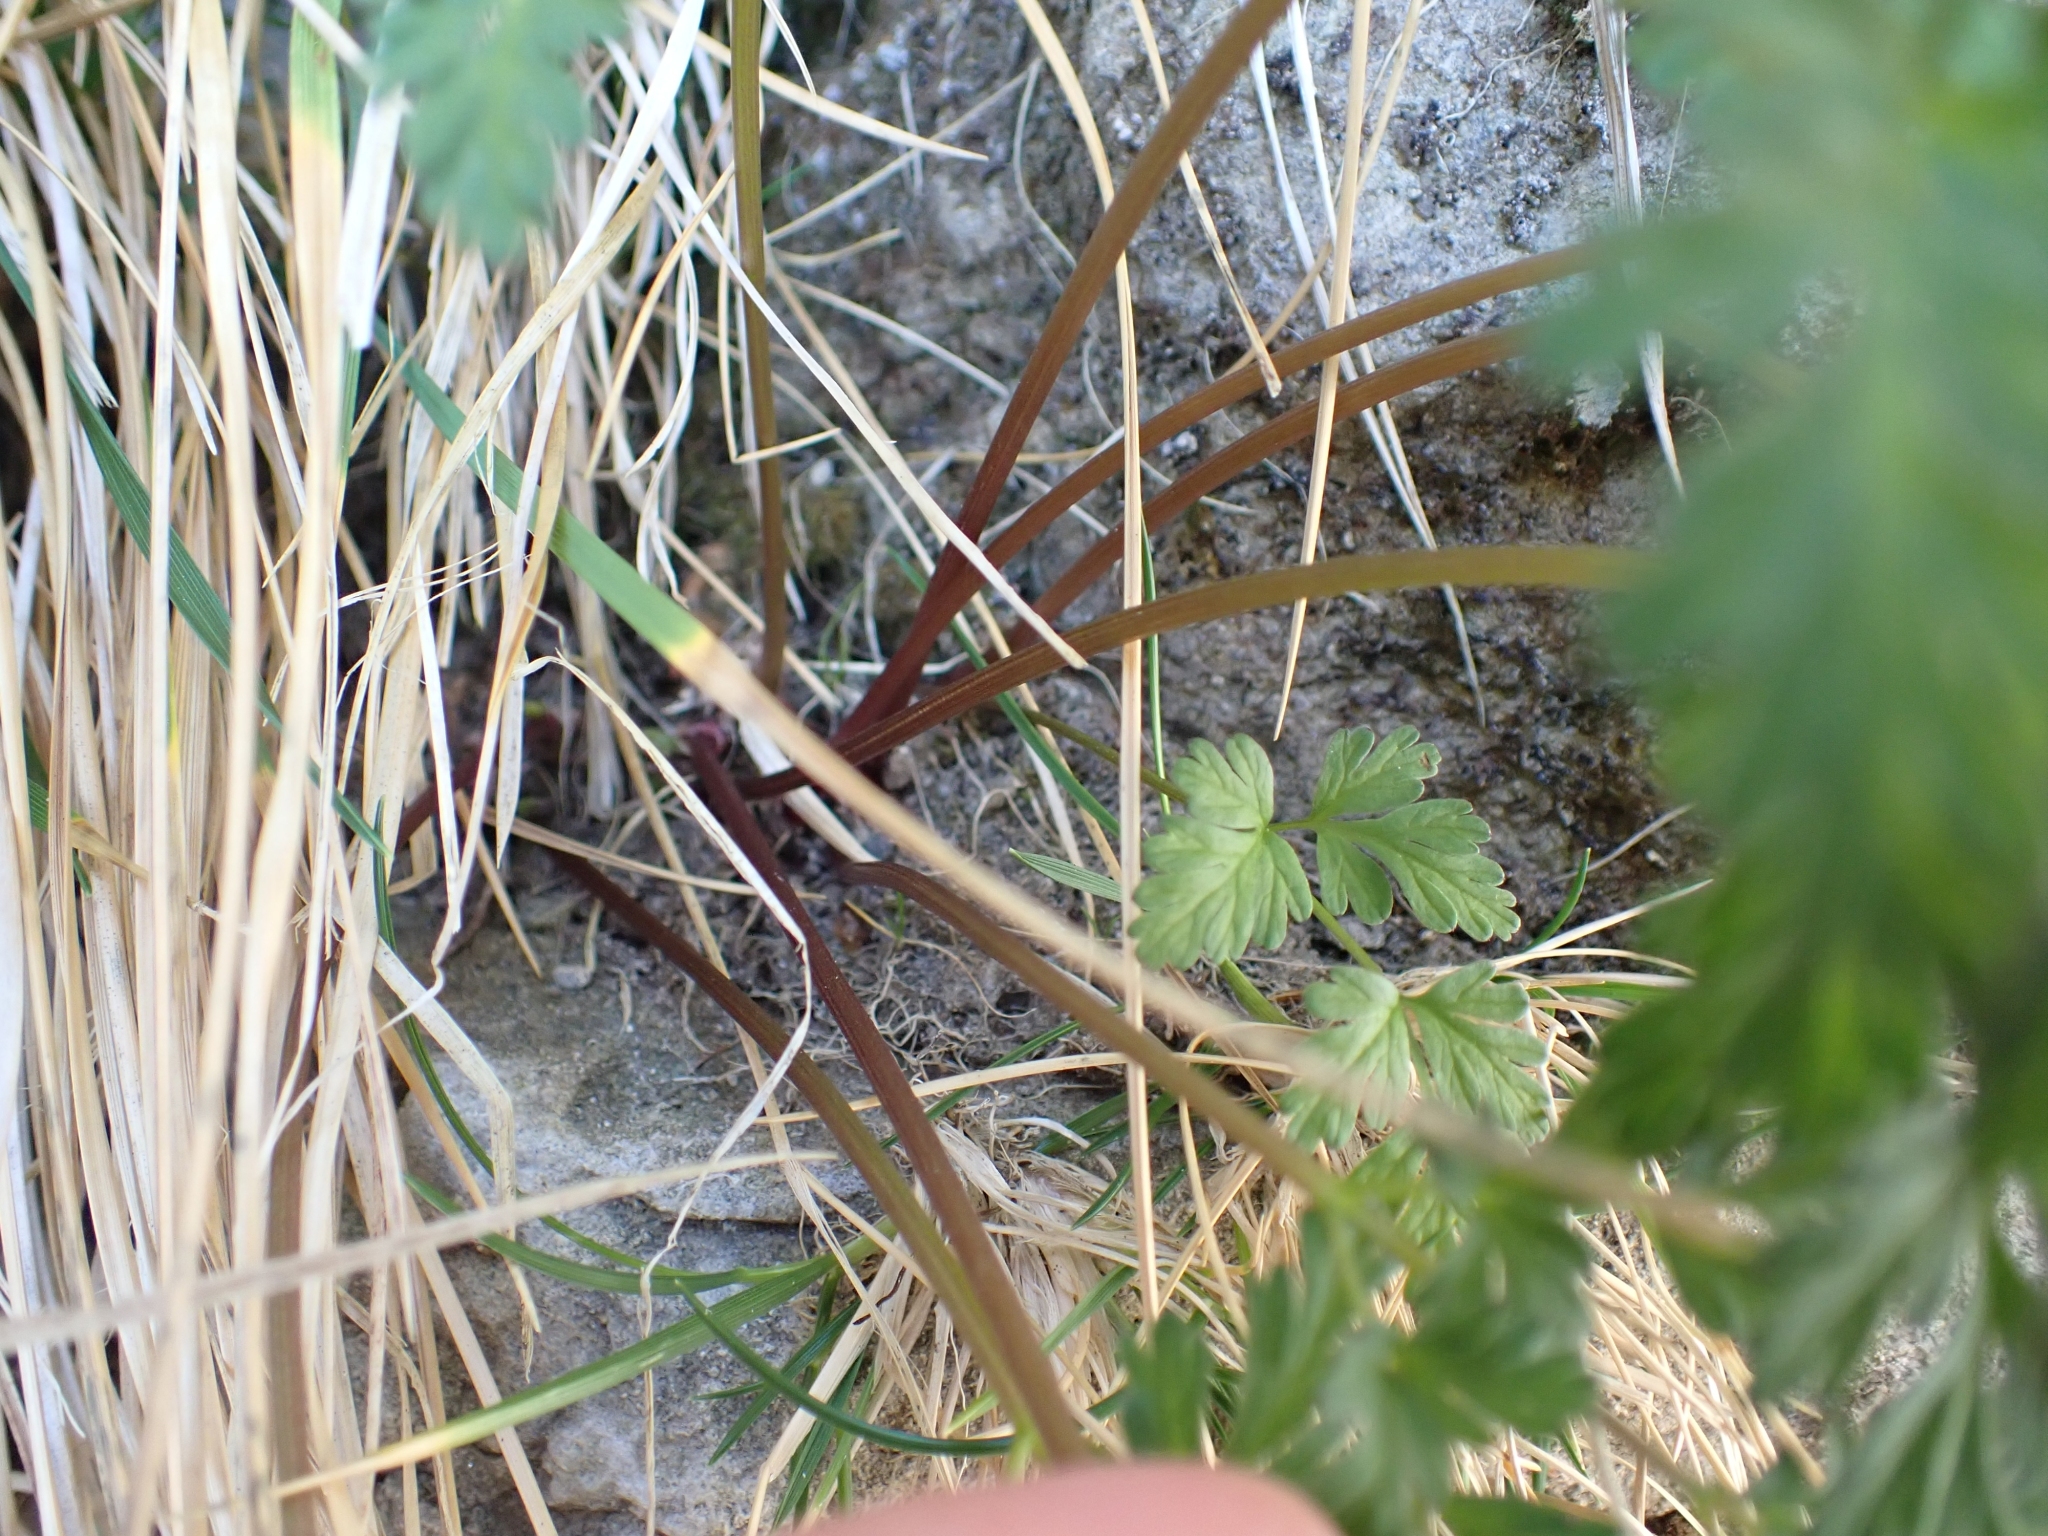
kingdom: Plantae
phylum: Tracheophyta
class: Magnoliopsida
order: Apiales
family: Apiaceae
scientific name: Apiaceae
